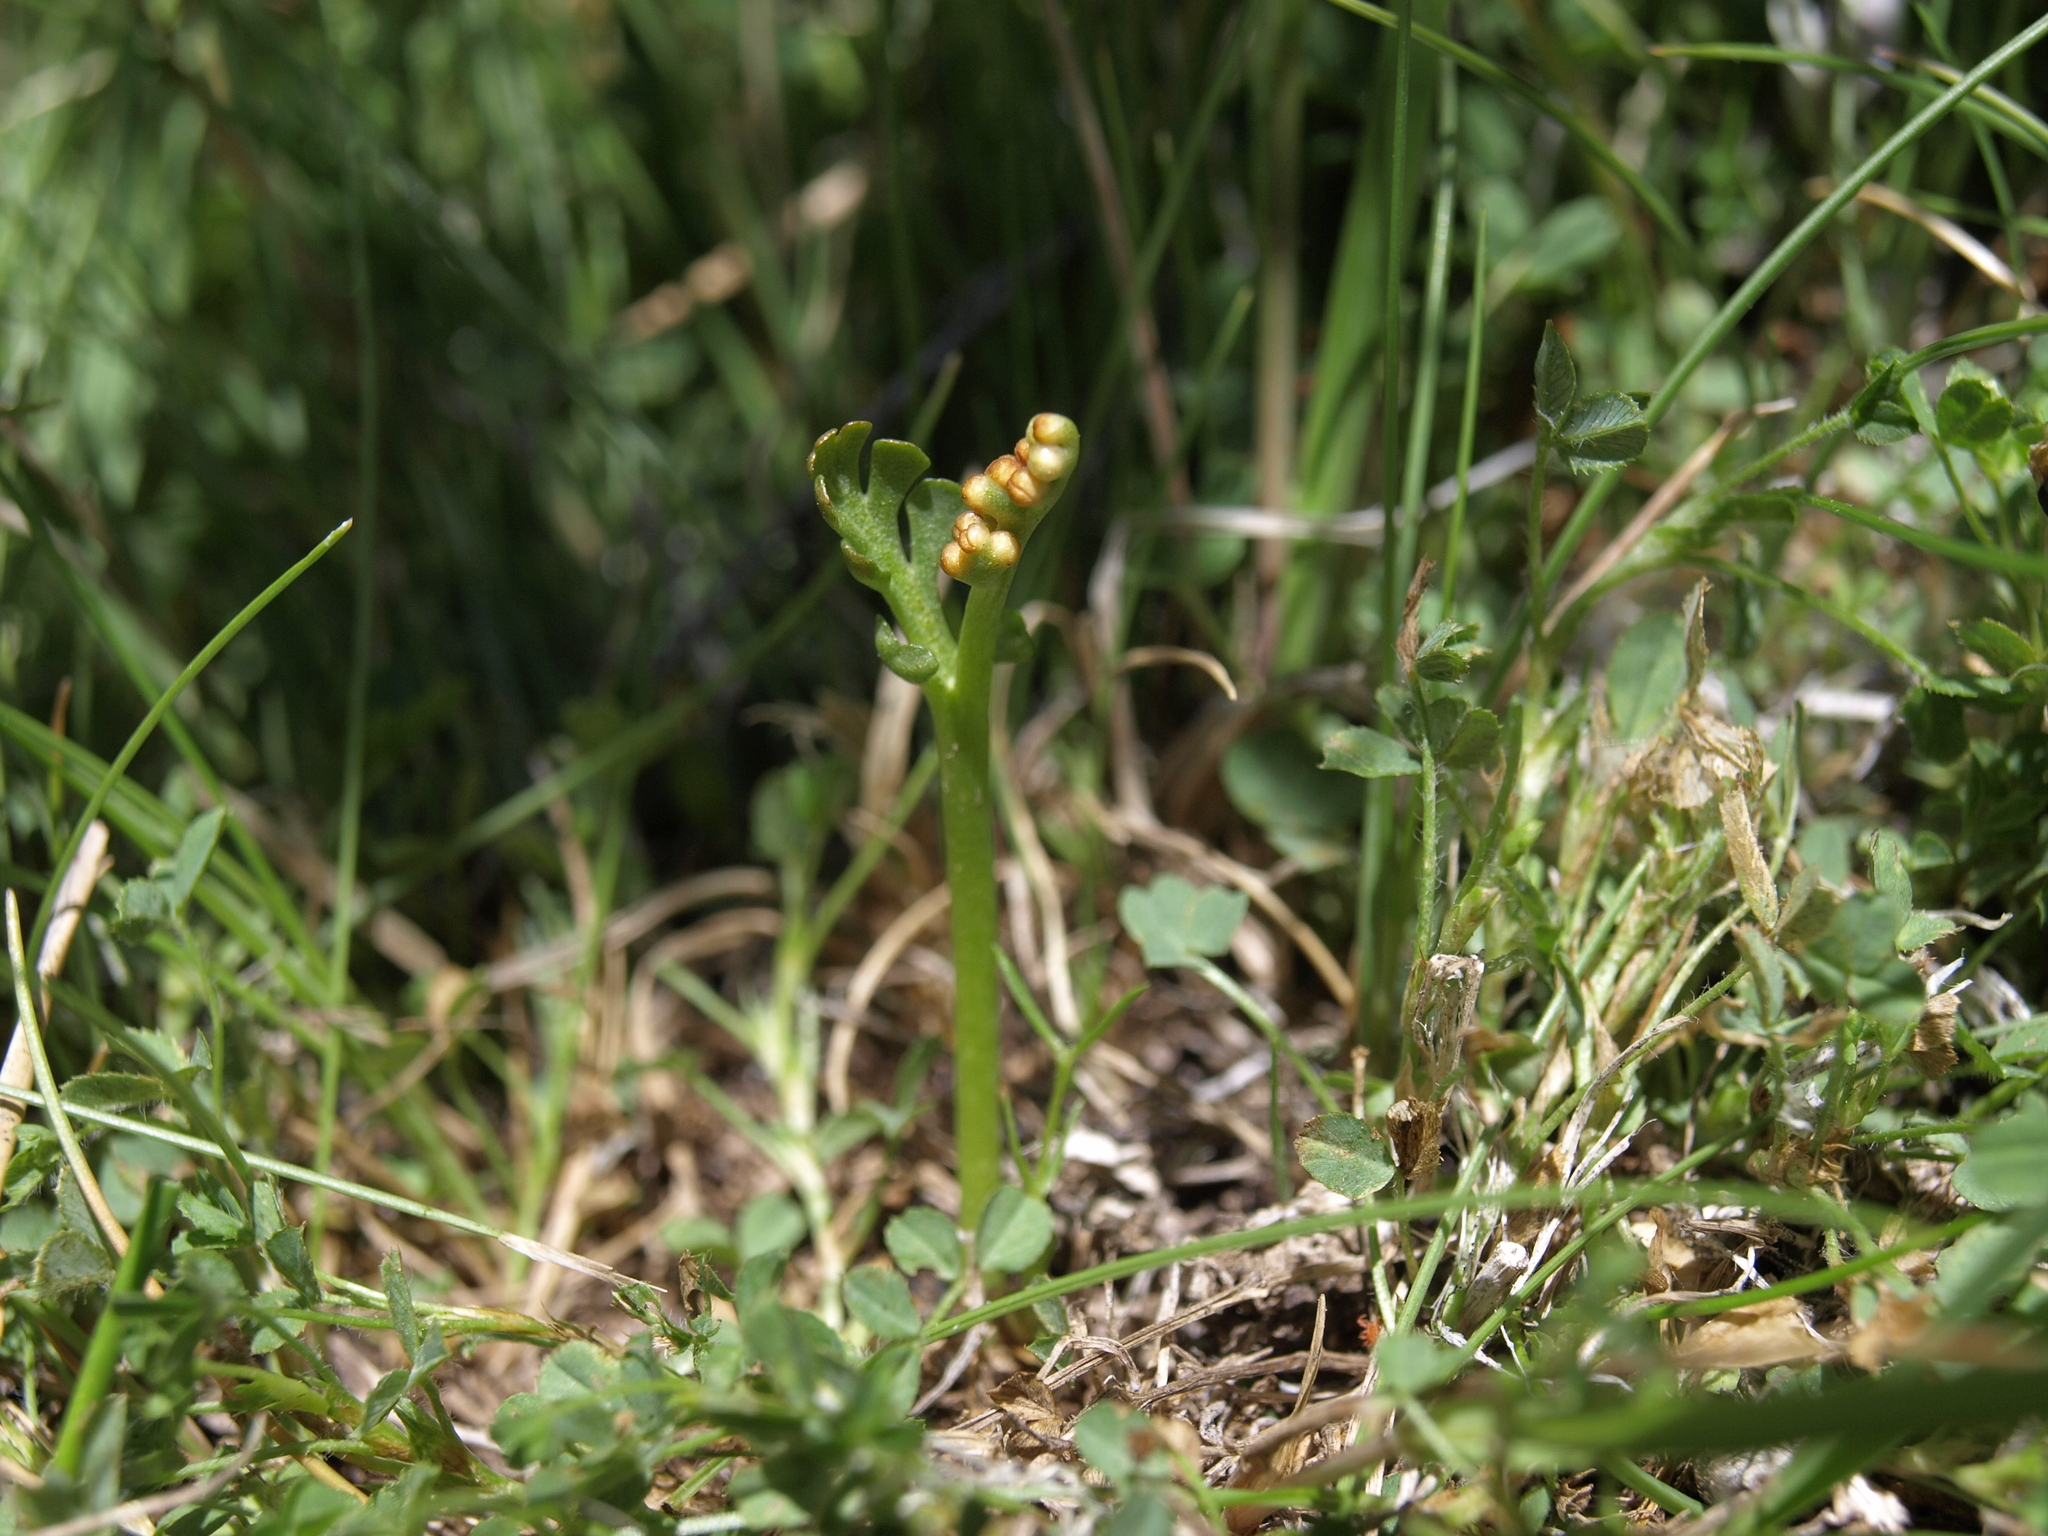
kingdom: Plantae
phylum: Tracheophyta
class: Polypodiopsida
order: Ophioglossales
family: Ophioglossaceae
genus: Botrychium
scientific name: Botrychium ascendens
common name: Ascending grapefern
